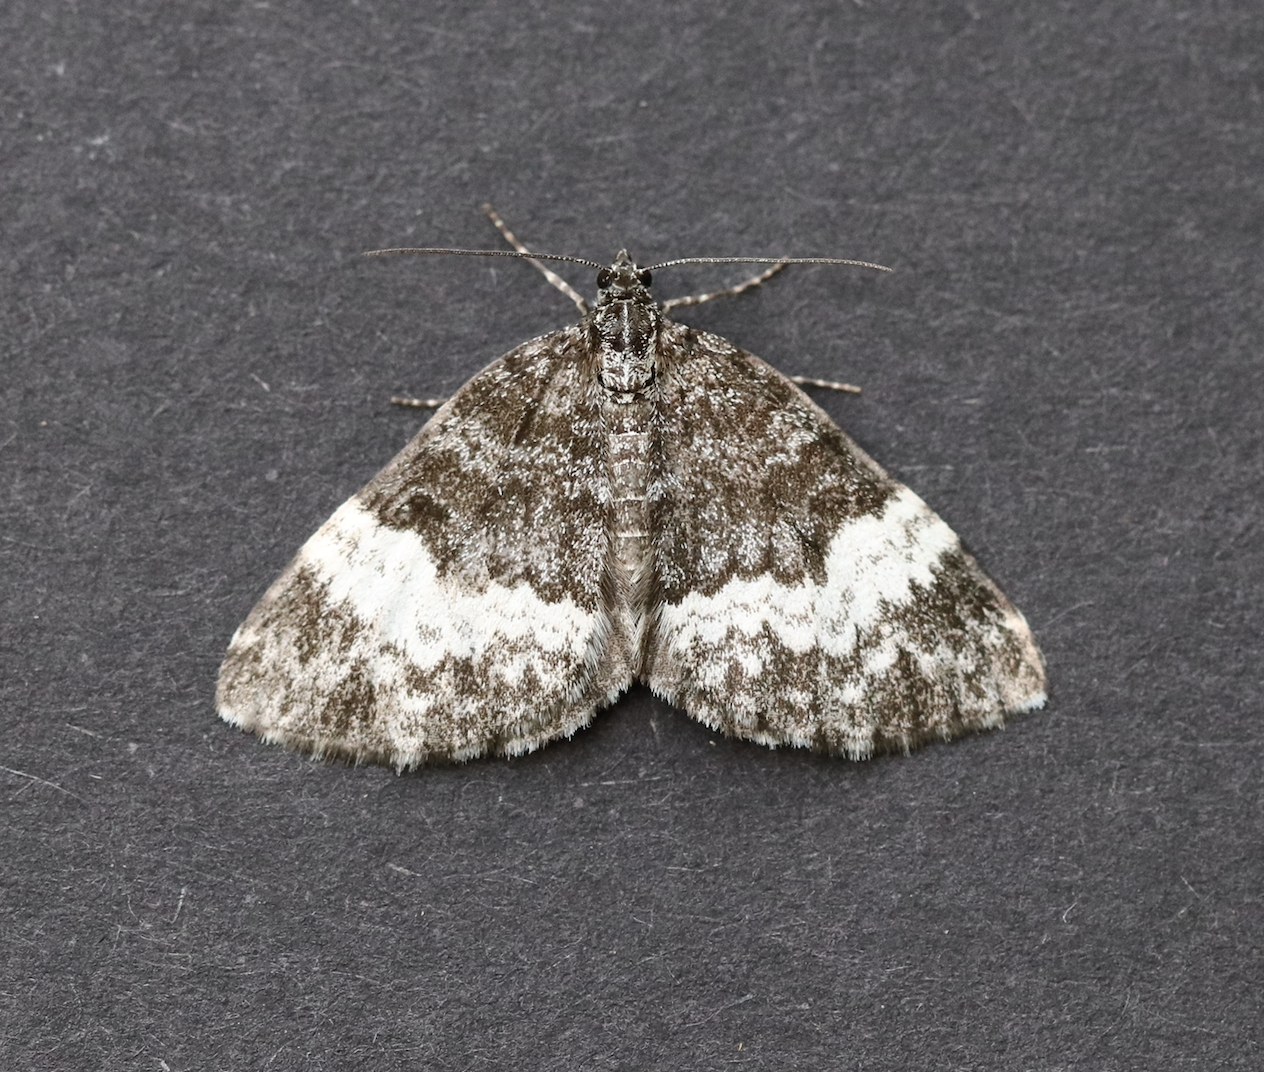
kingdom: Animalia
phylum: Arthropoda
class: Insecta
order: Lepidoptera
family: Geometridae
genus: Spargania
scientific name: Spargania luctuata
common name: White-banded carpet
